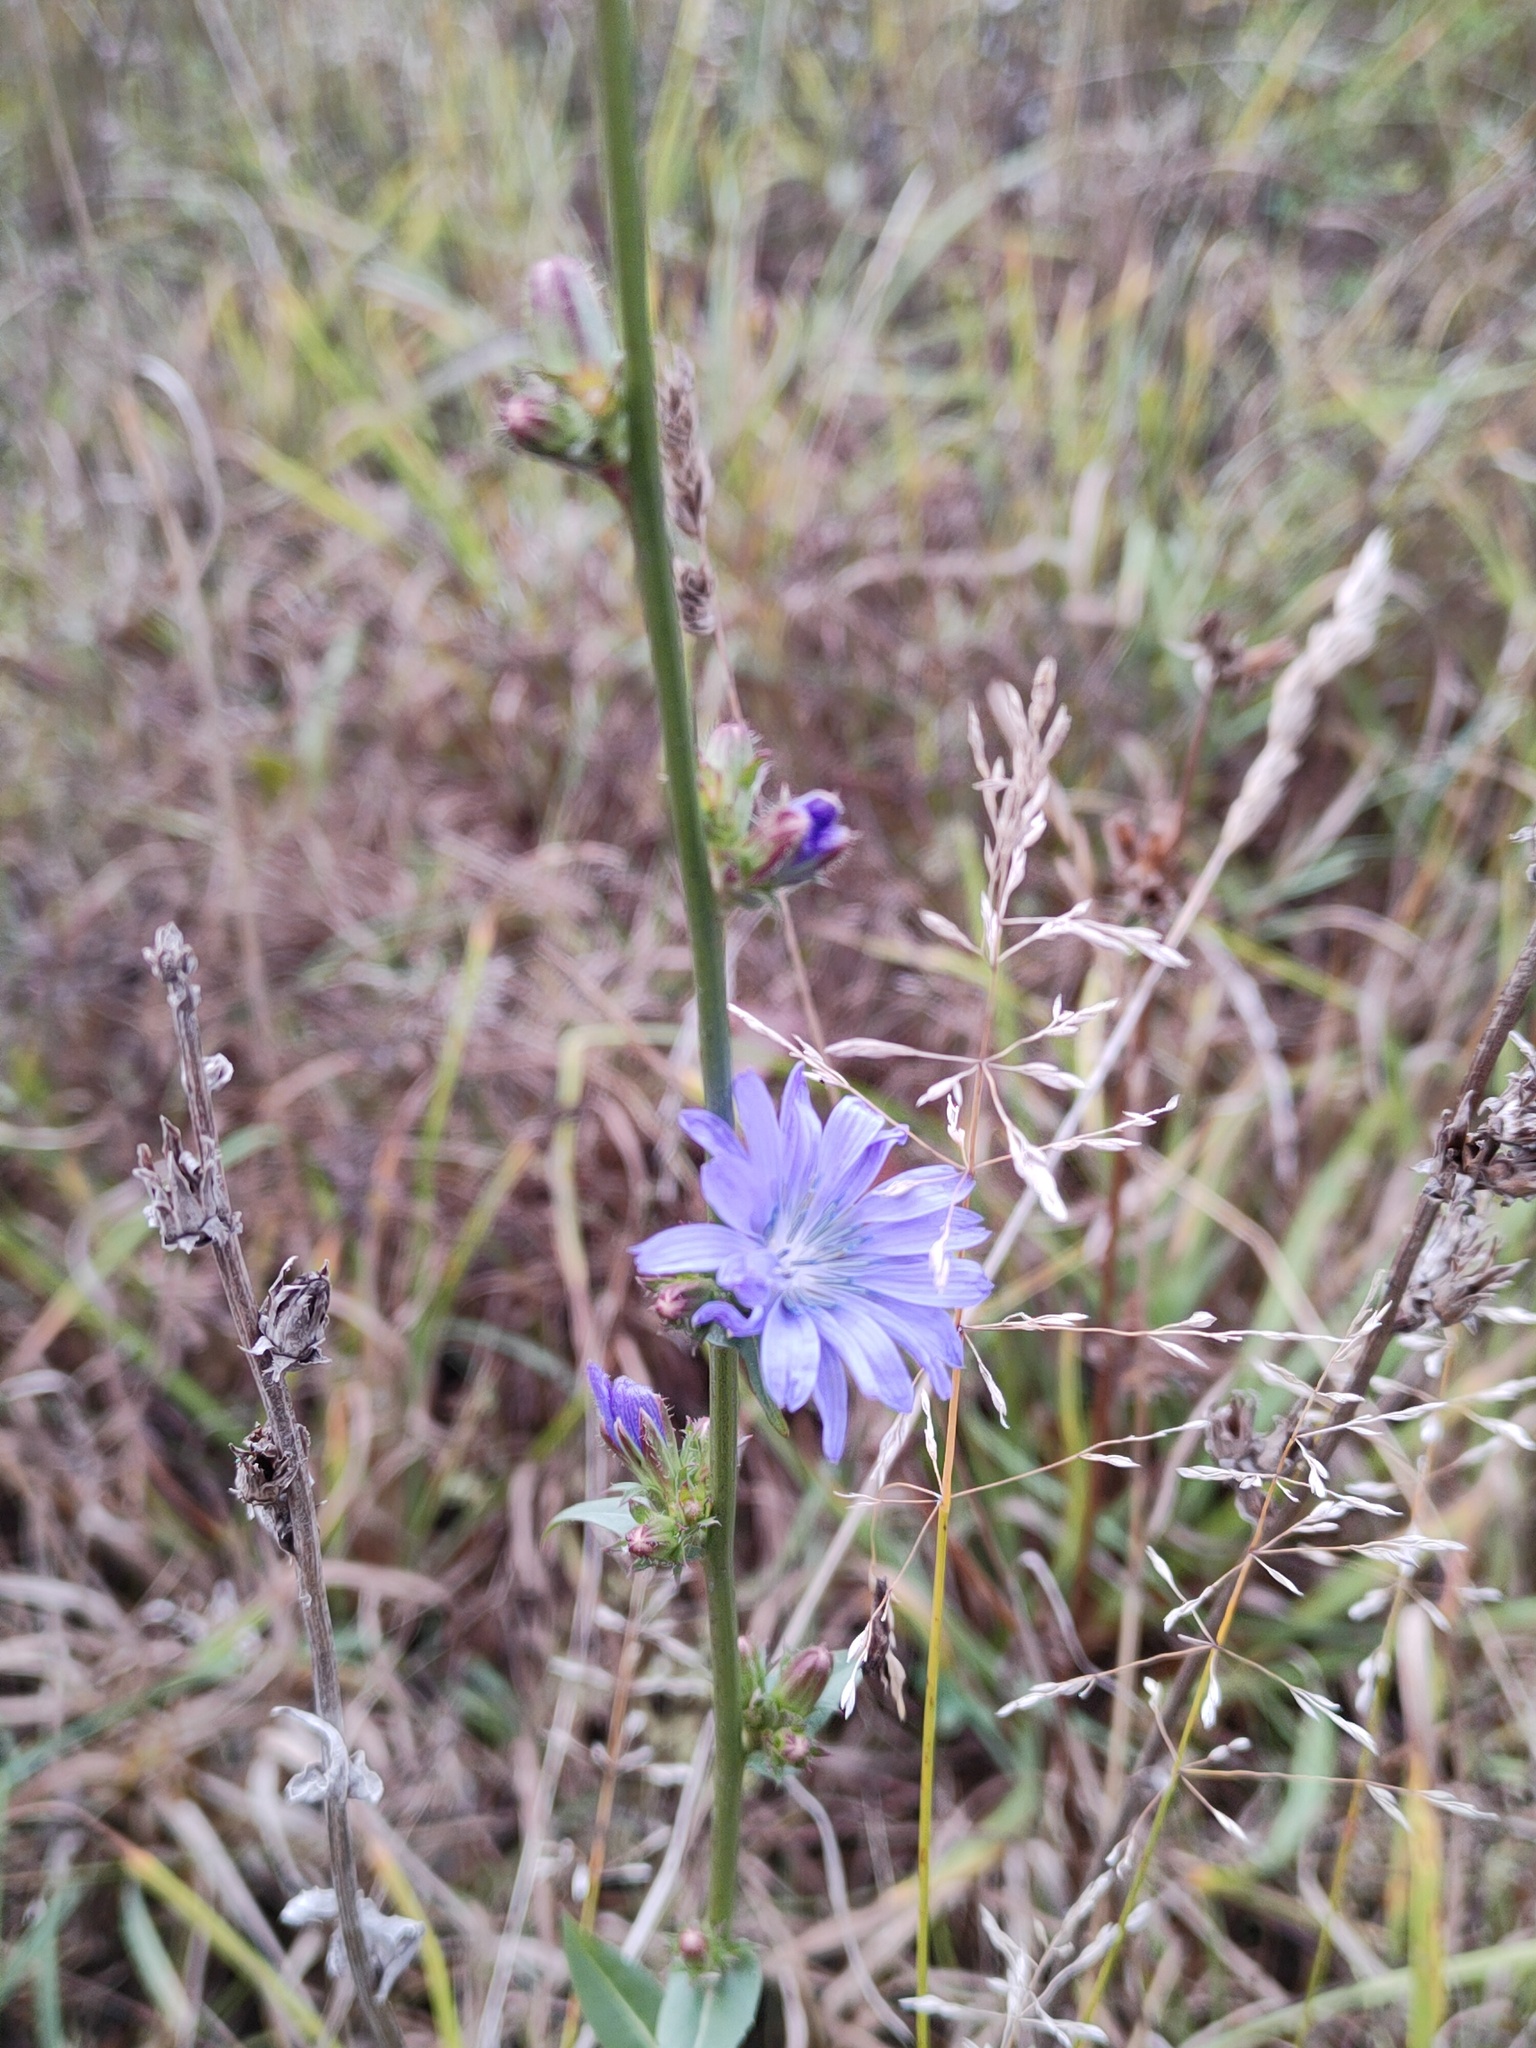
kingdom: Plantae
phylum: Tracheophyta
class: Magnoliopsida
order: Asterales
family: Asteraceae
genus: Cichorium
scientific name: Cichorium intybus
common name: Chicory
